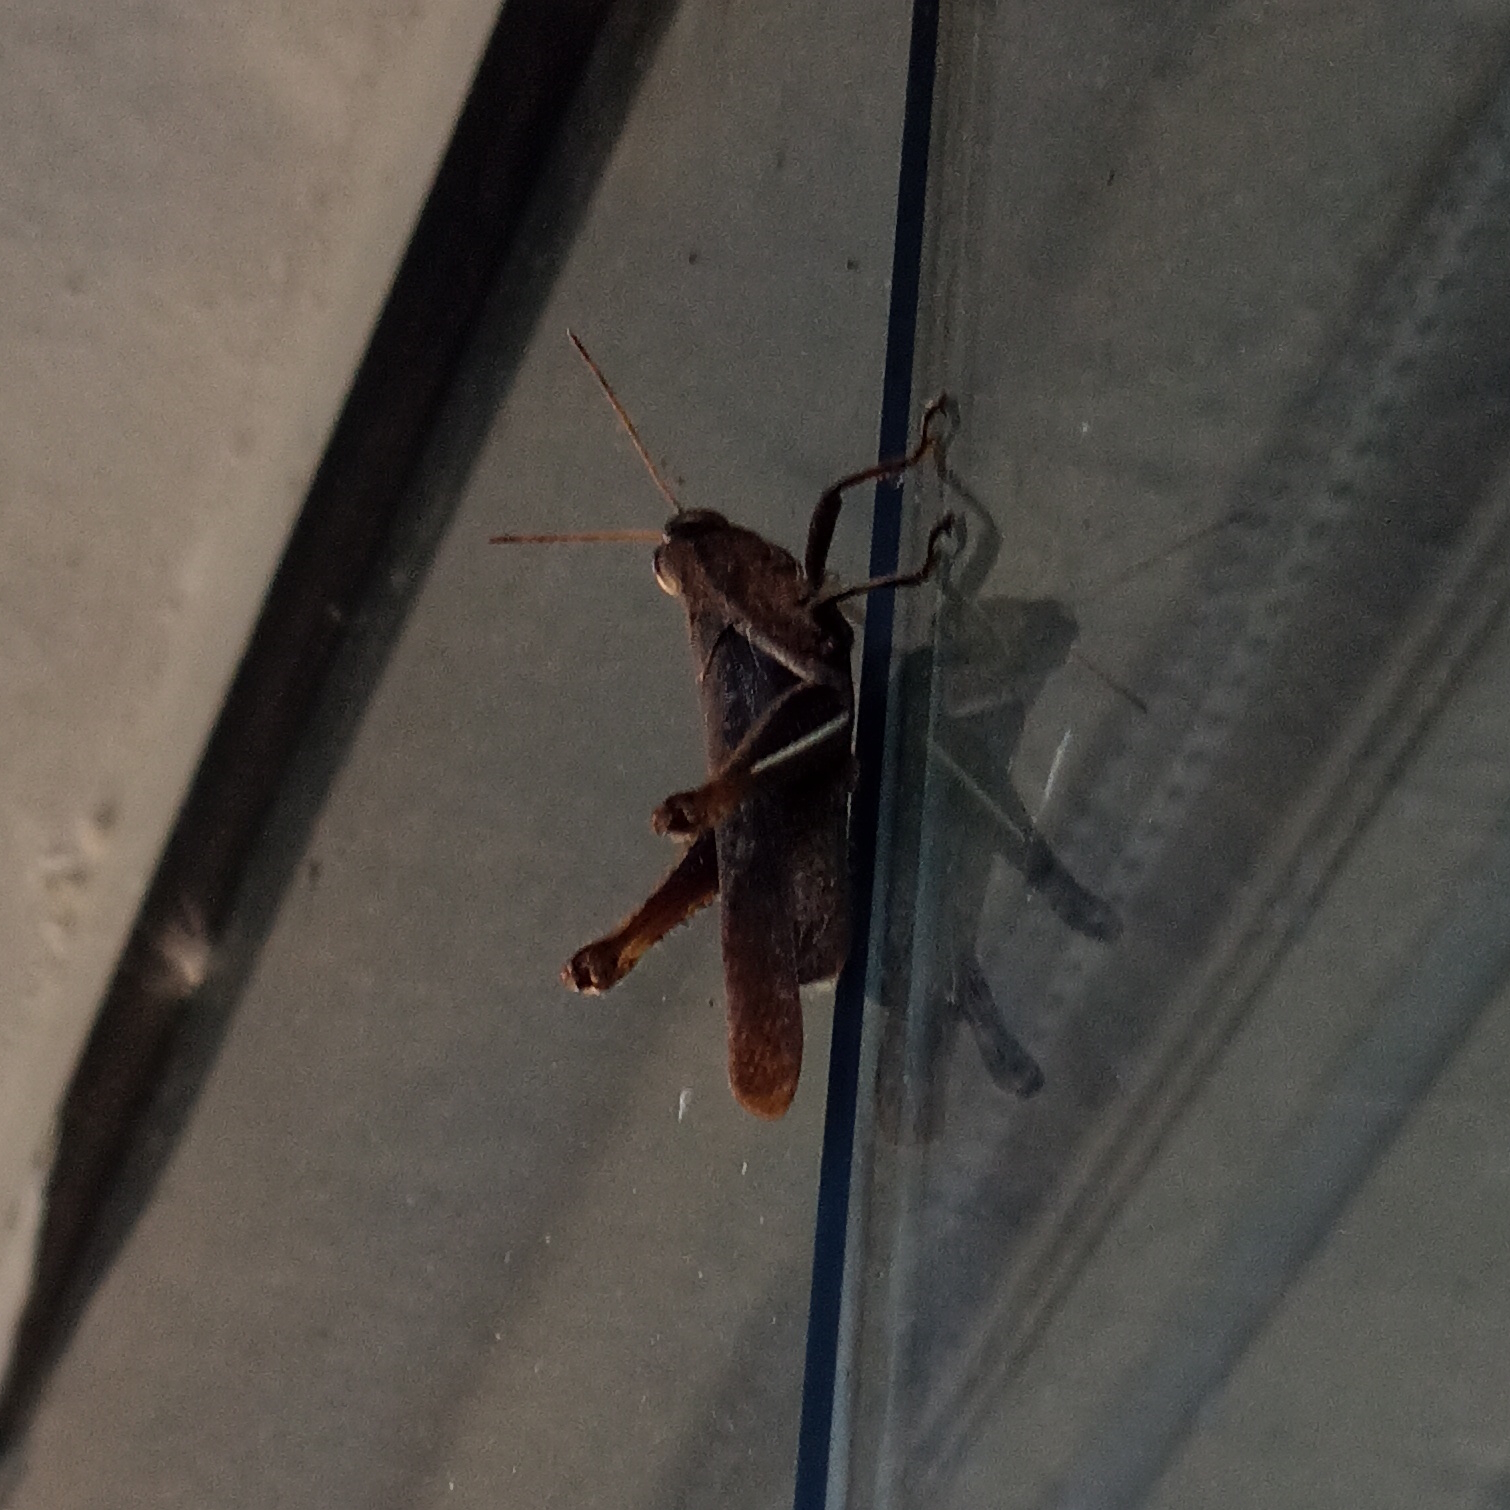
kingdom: Animalia
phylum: Arthropoda
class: Insecta
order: Orthoptera
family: Acrididae
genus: Abracris
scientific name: Abracris flavolineata
